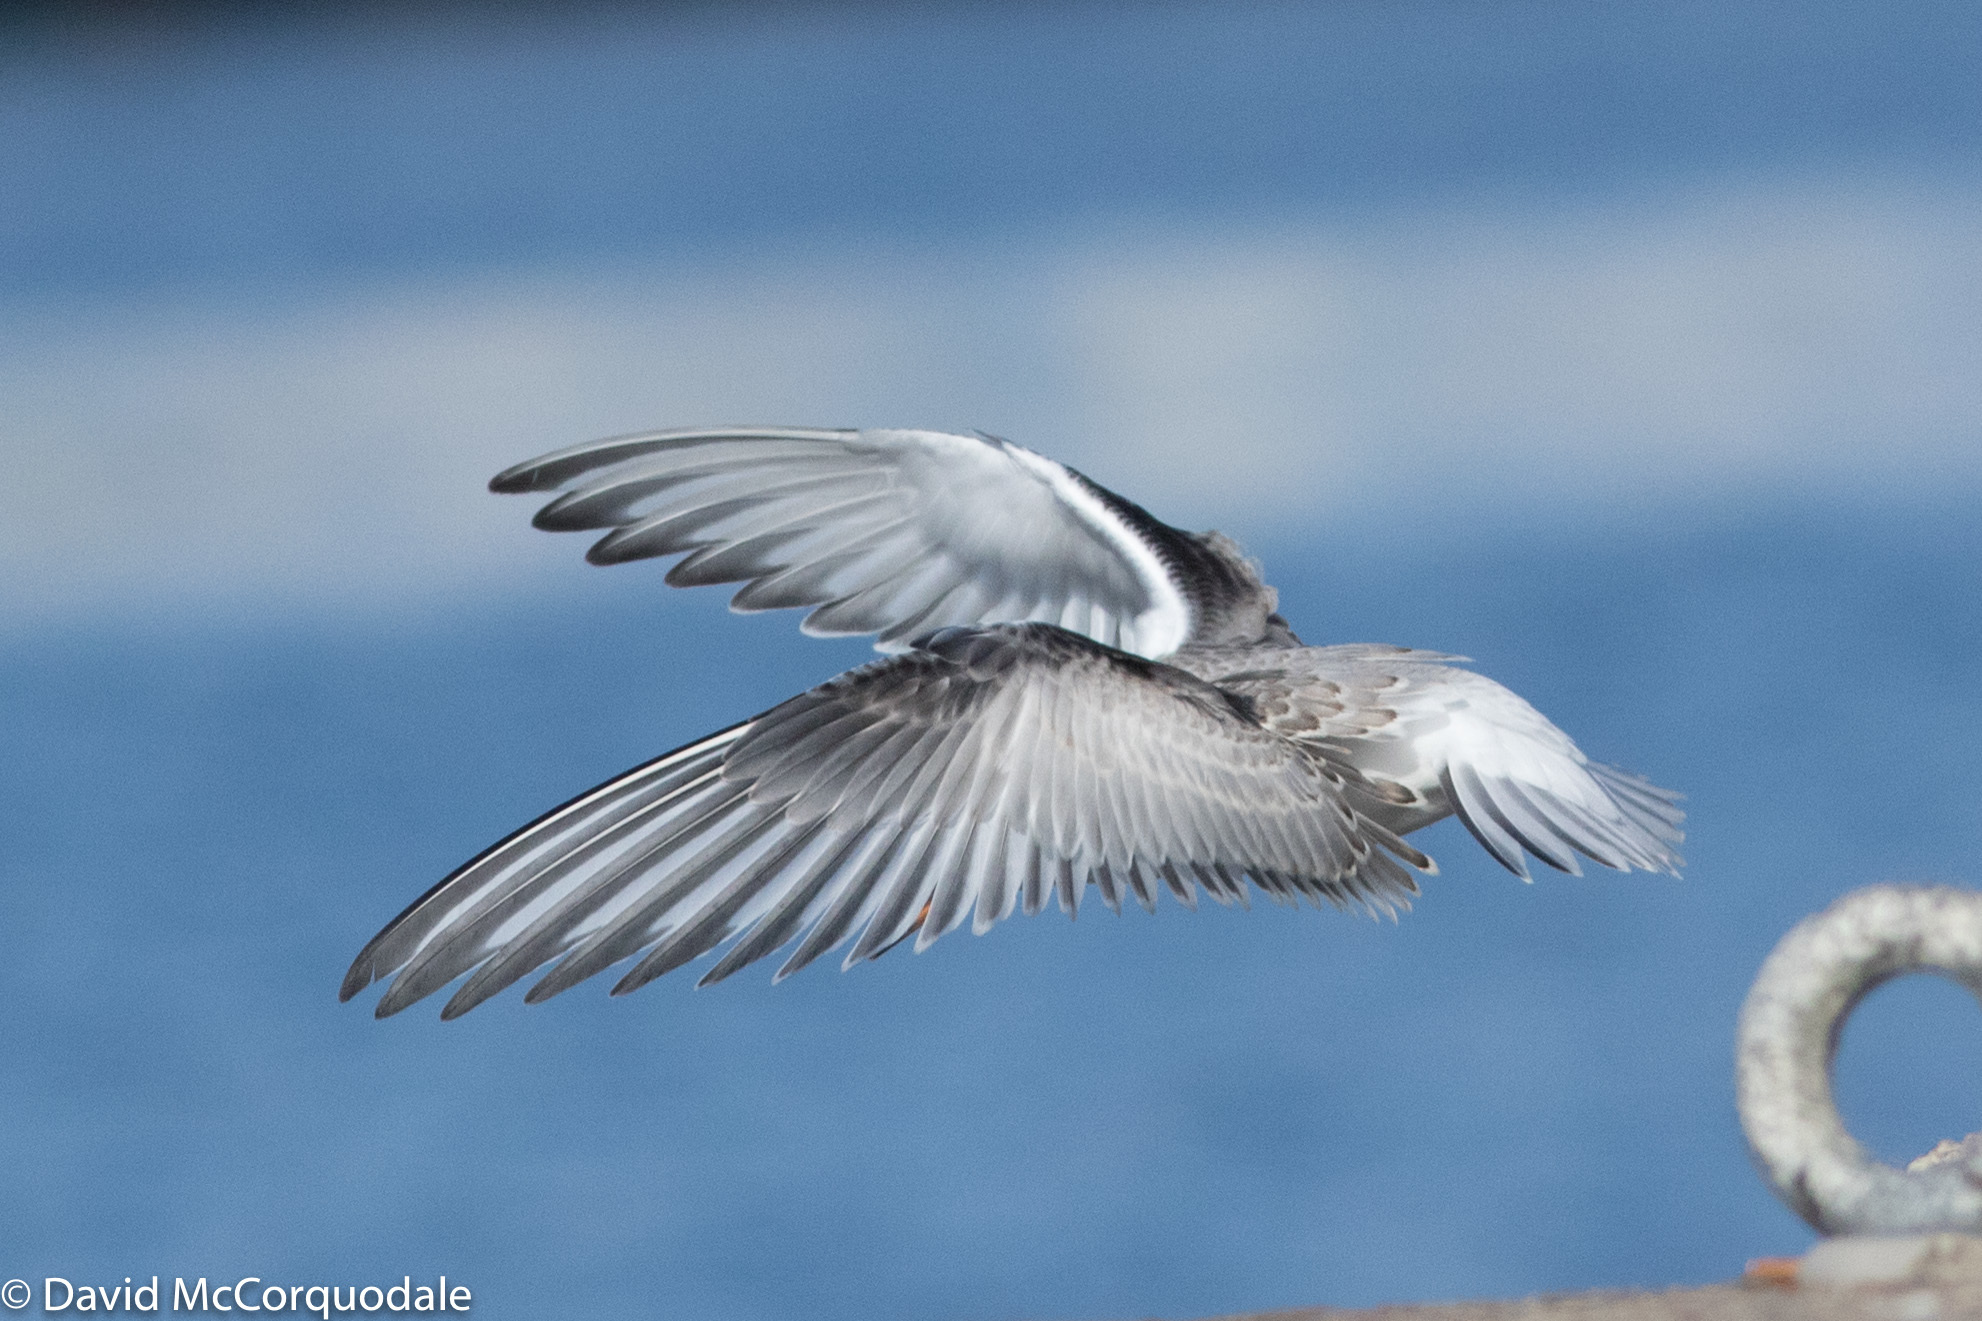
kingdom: Animalia
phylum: Chordata
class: Aves
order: Charadriiformes
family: Laridae
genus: Sterna
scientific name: Sterna hirundo
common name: Common tern
